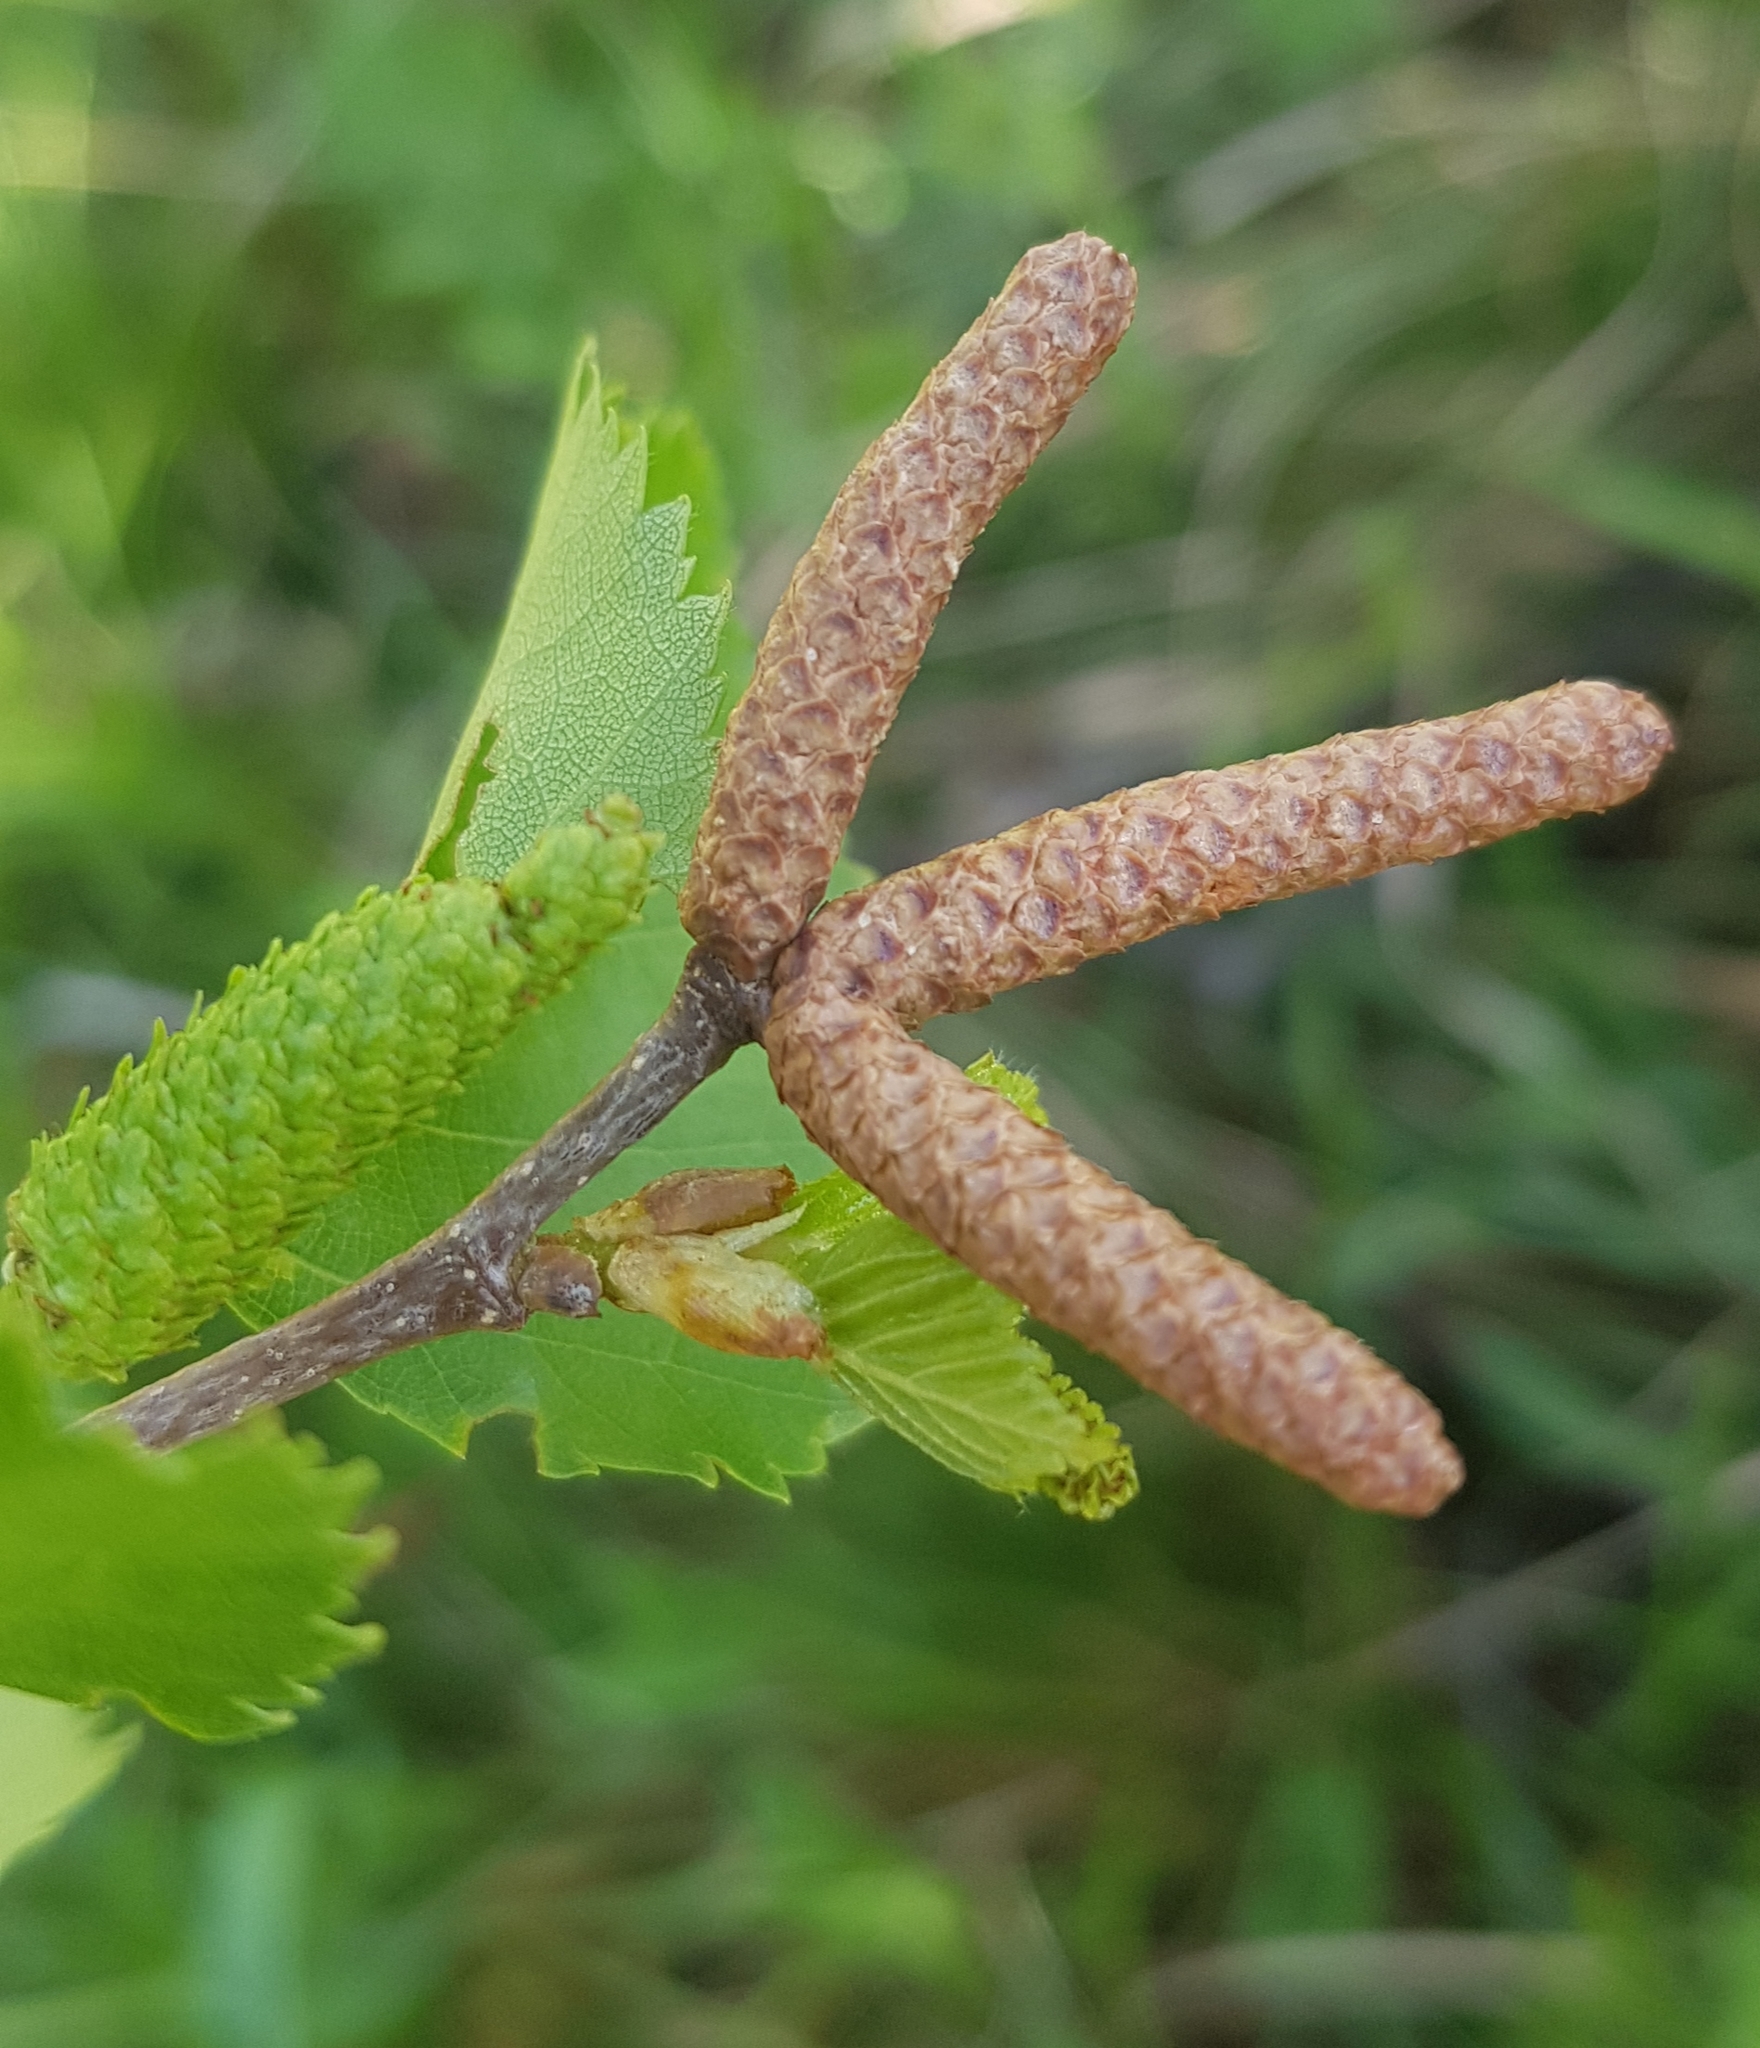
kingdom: Plantae
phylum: Tracheophyta
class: Magnoliopsida
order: Fagales
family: Betulaceae
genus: Betula
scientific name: Betula pendula
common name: Silver birch
